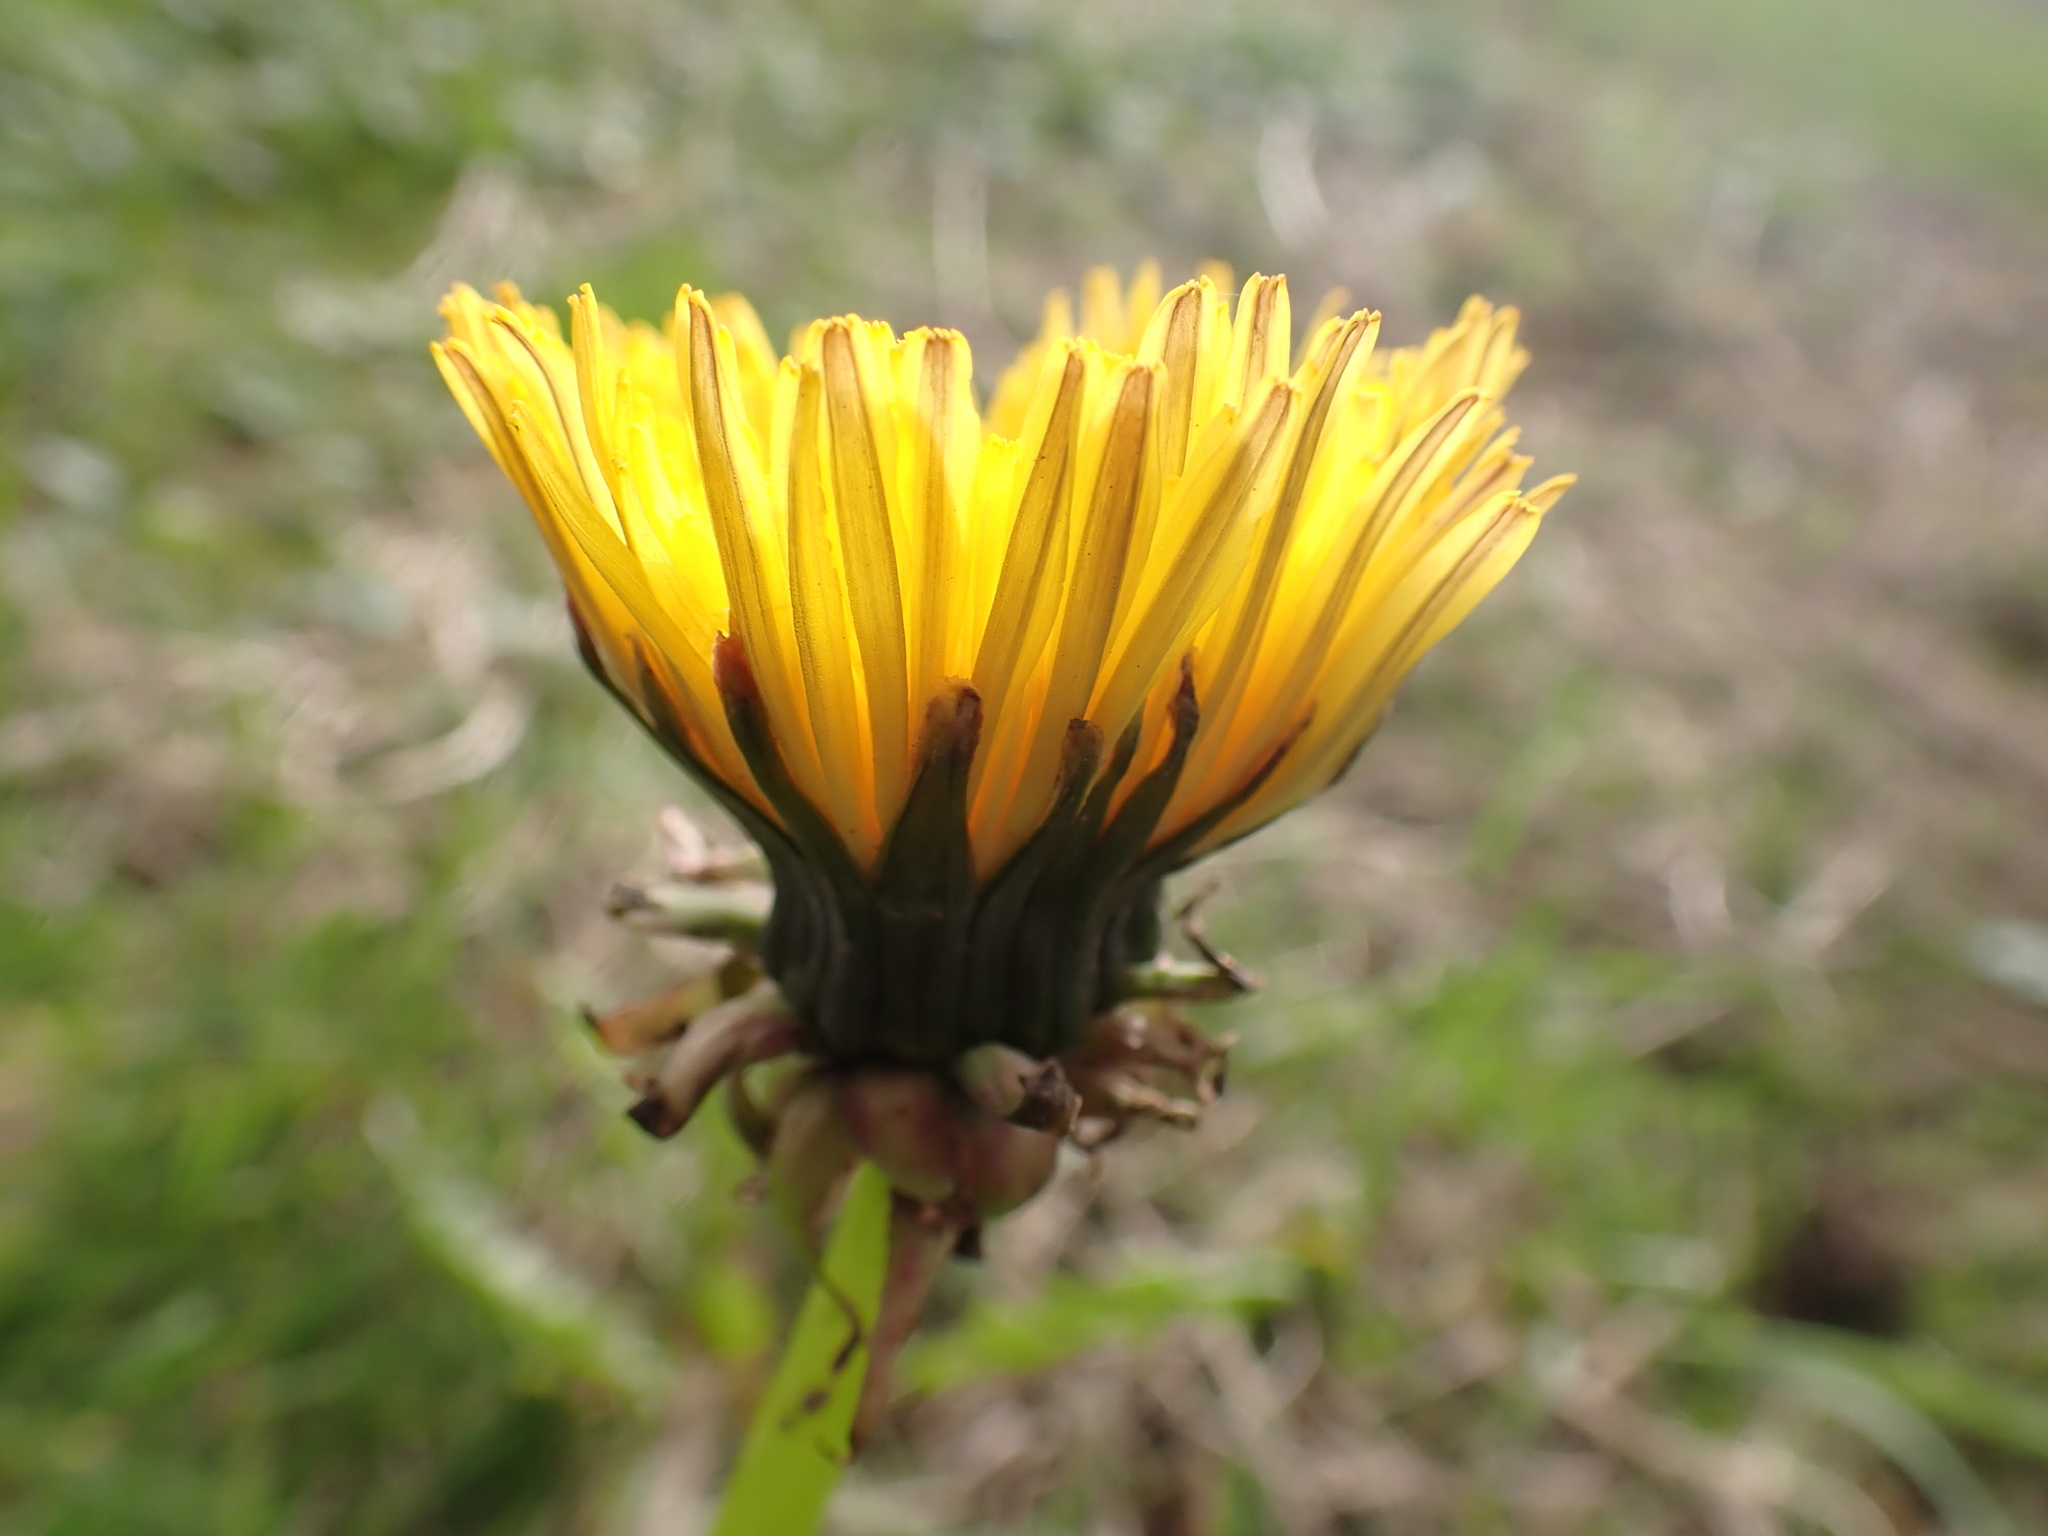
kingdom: Plantae
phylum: Tracheophyta
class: Magnoliopsida
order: Asterales
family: Asteraceae
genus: Taraxacum
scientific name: Taraxacum officinale
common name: Common dandelion
